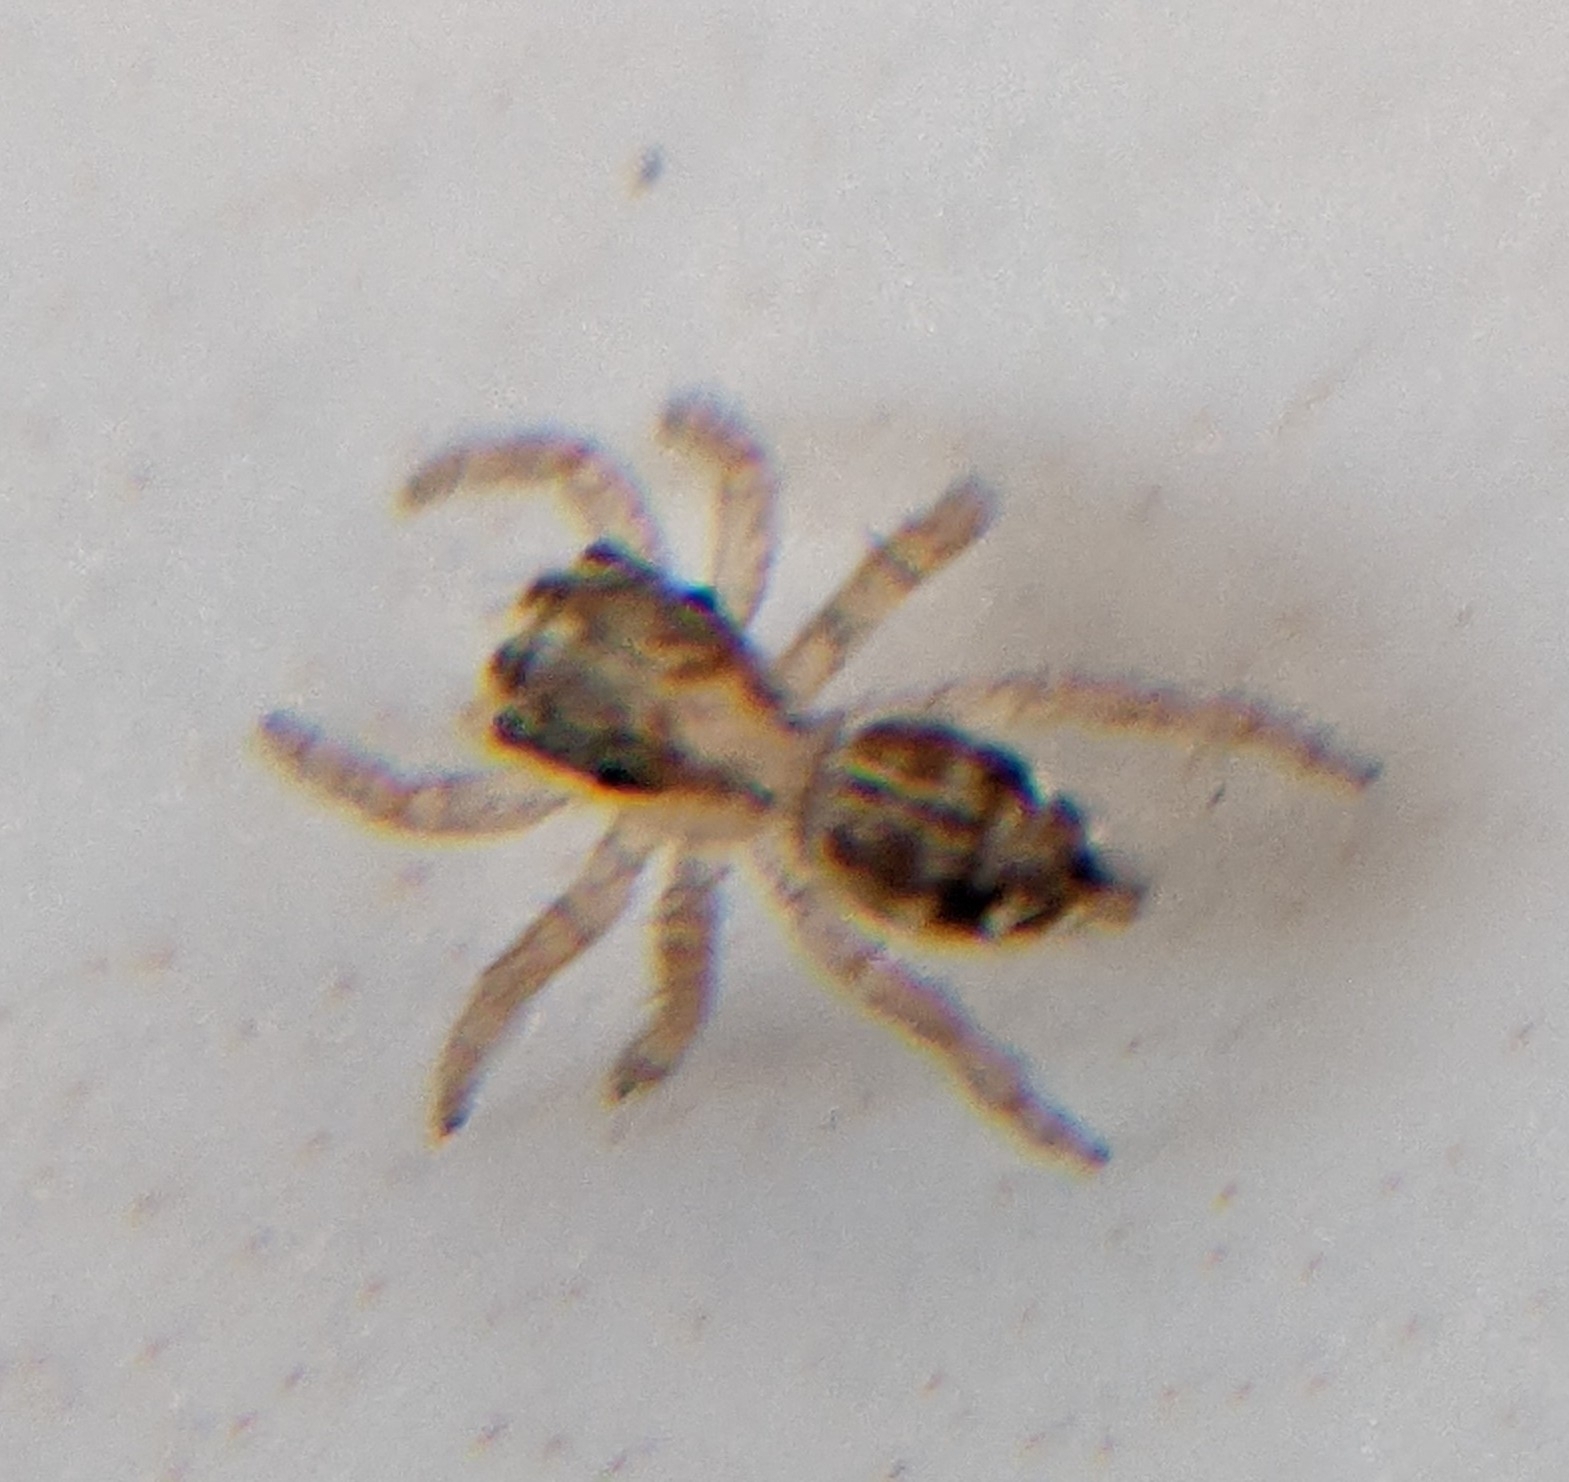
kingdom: Animalia
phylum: Arthropoda
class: Arachnida
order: Araneae
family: Salticidae
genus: Plexippus
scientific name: Plexippus paykulli
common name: Pantropical jumper
